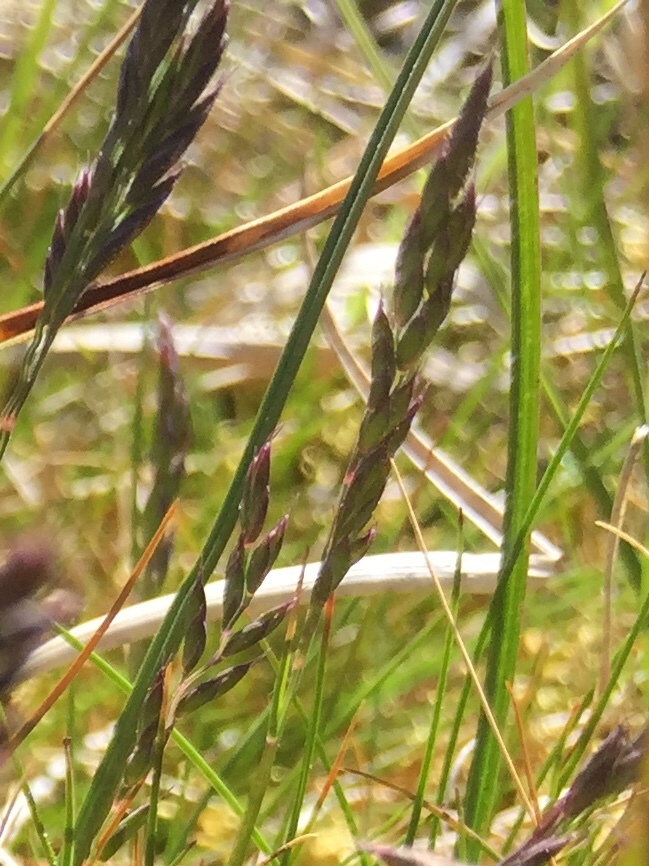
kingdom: Plantae
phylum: Tracheophyta
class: Liliopsida
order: Poales
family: Poaceae
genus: Danthonia
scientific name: Danthonia decumbens
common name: Common heathgrass
